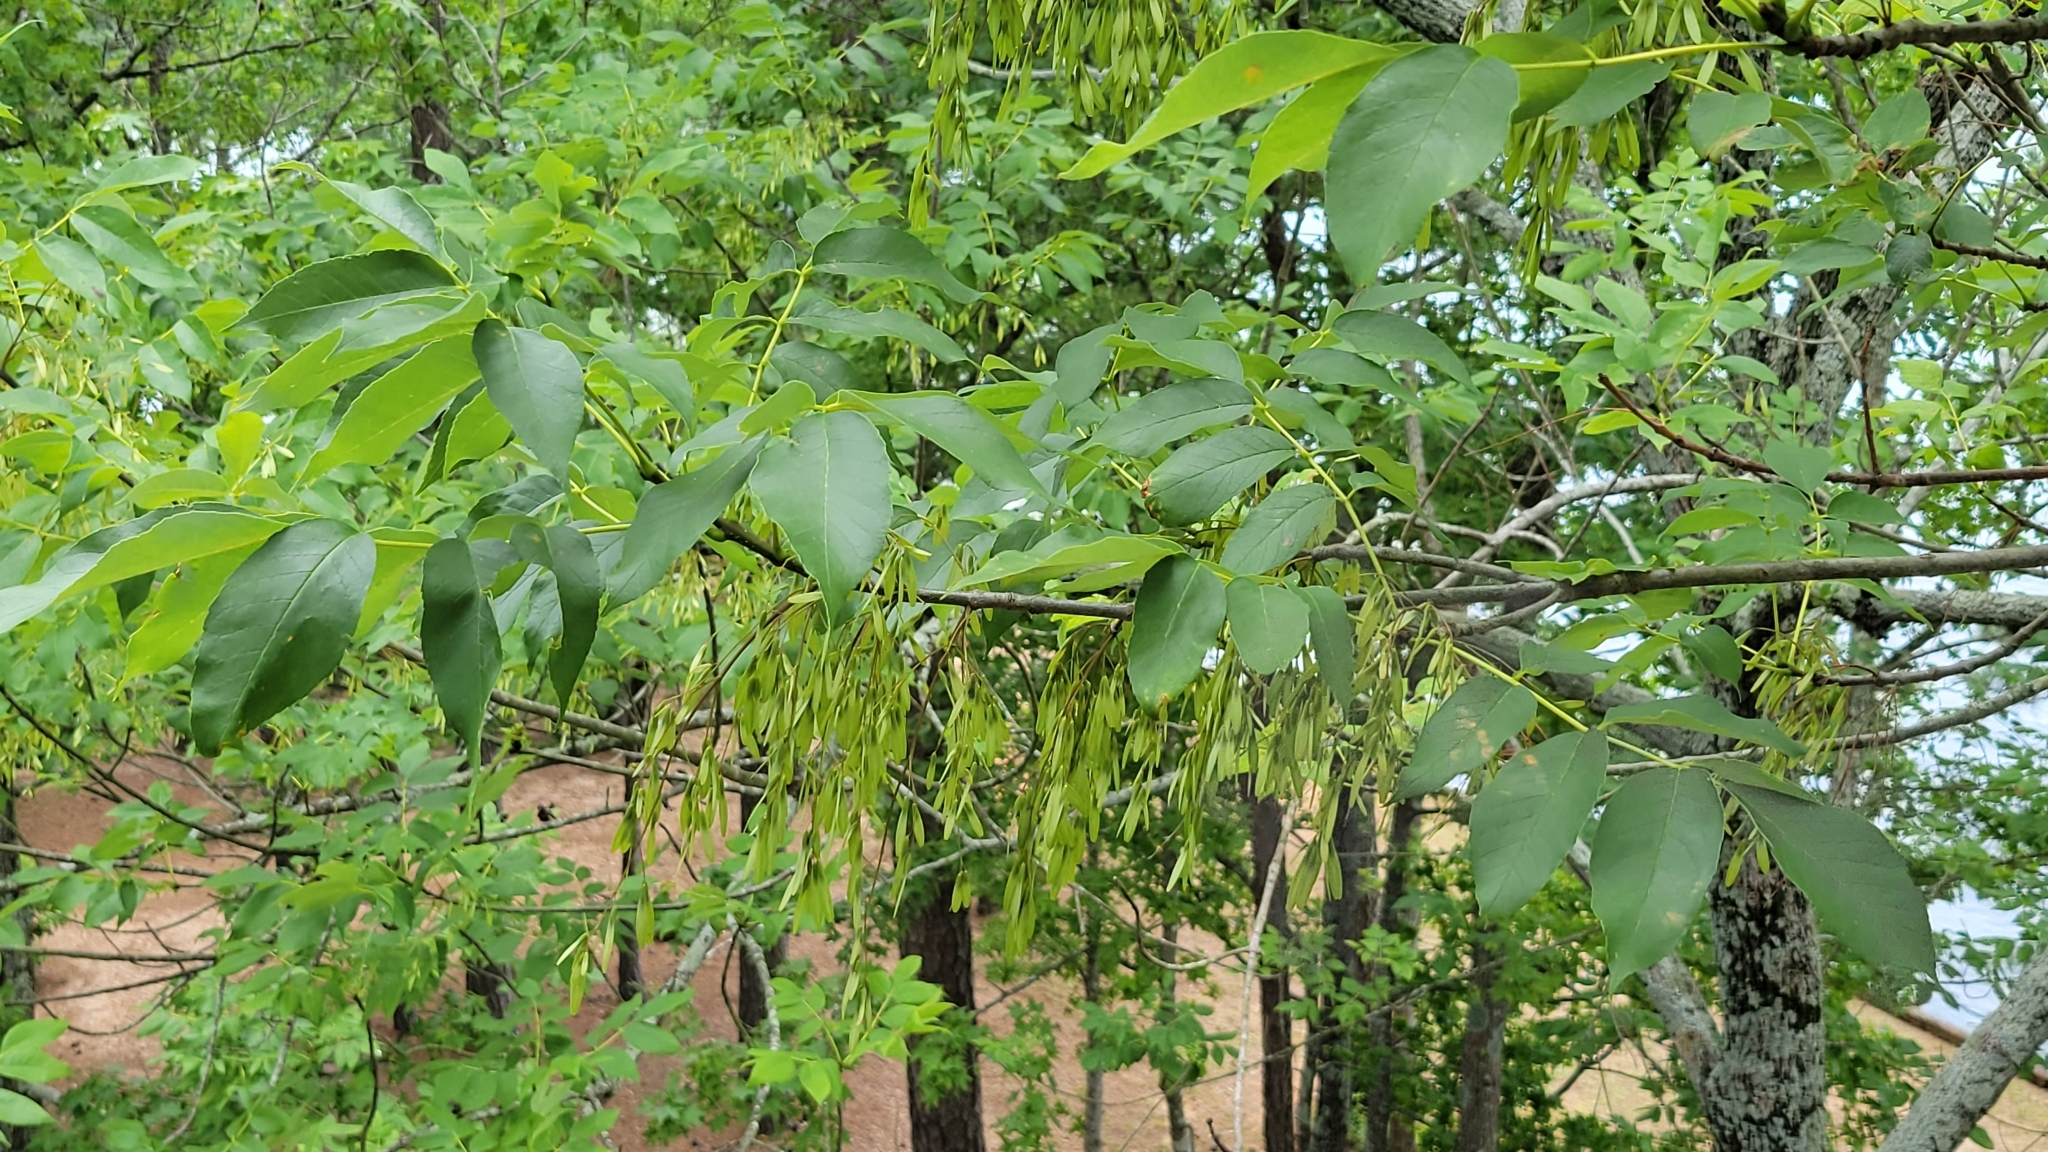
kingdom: Plantae
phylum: Tracheophyta
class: Magnoliopsida
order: Lamiales
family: Oleaceae
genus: Fraxinus
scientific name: Fraxinus pennsylvanica
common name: Green ash
